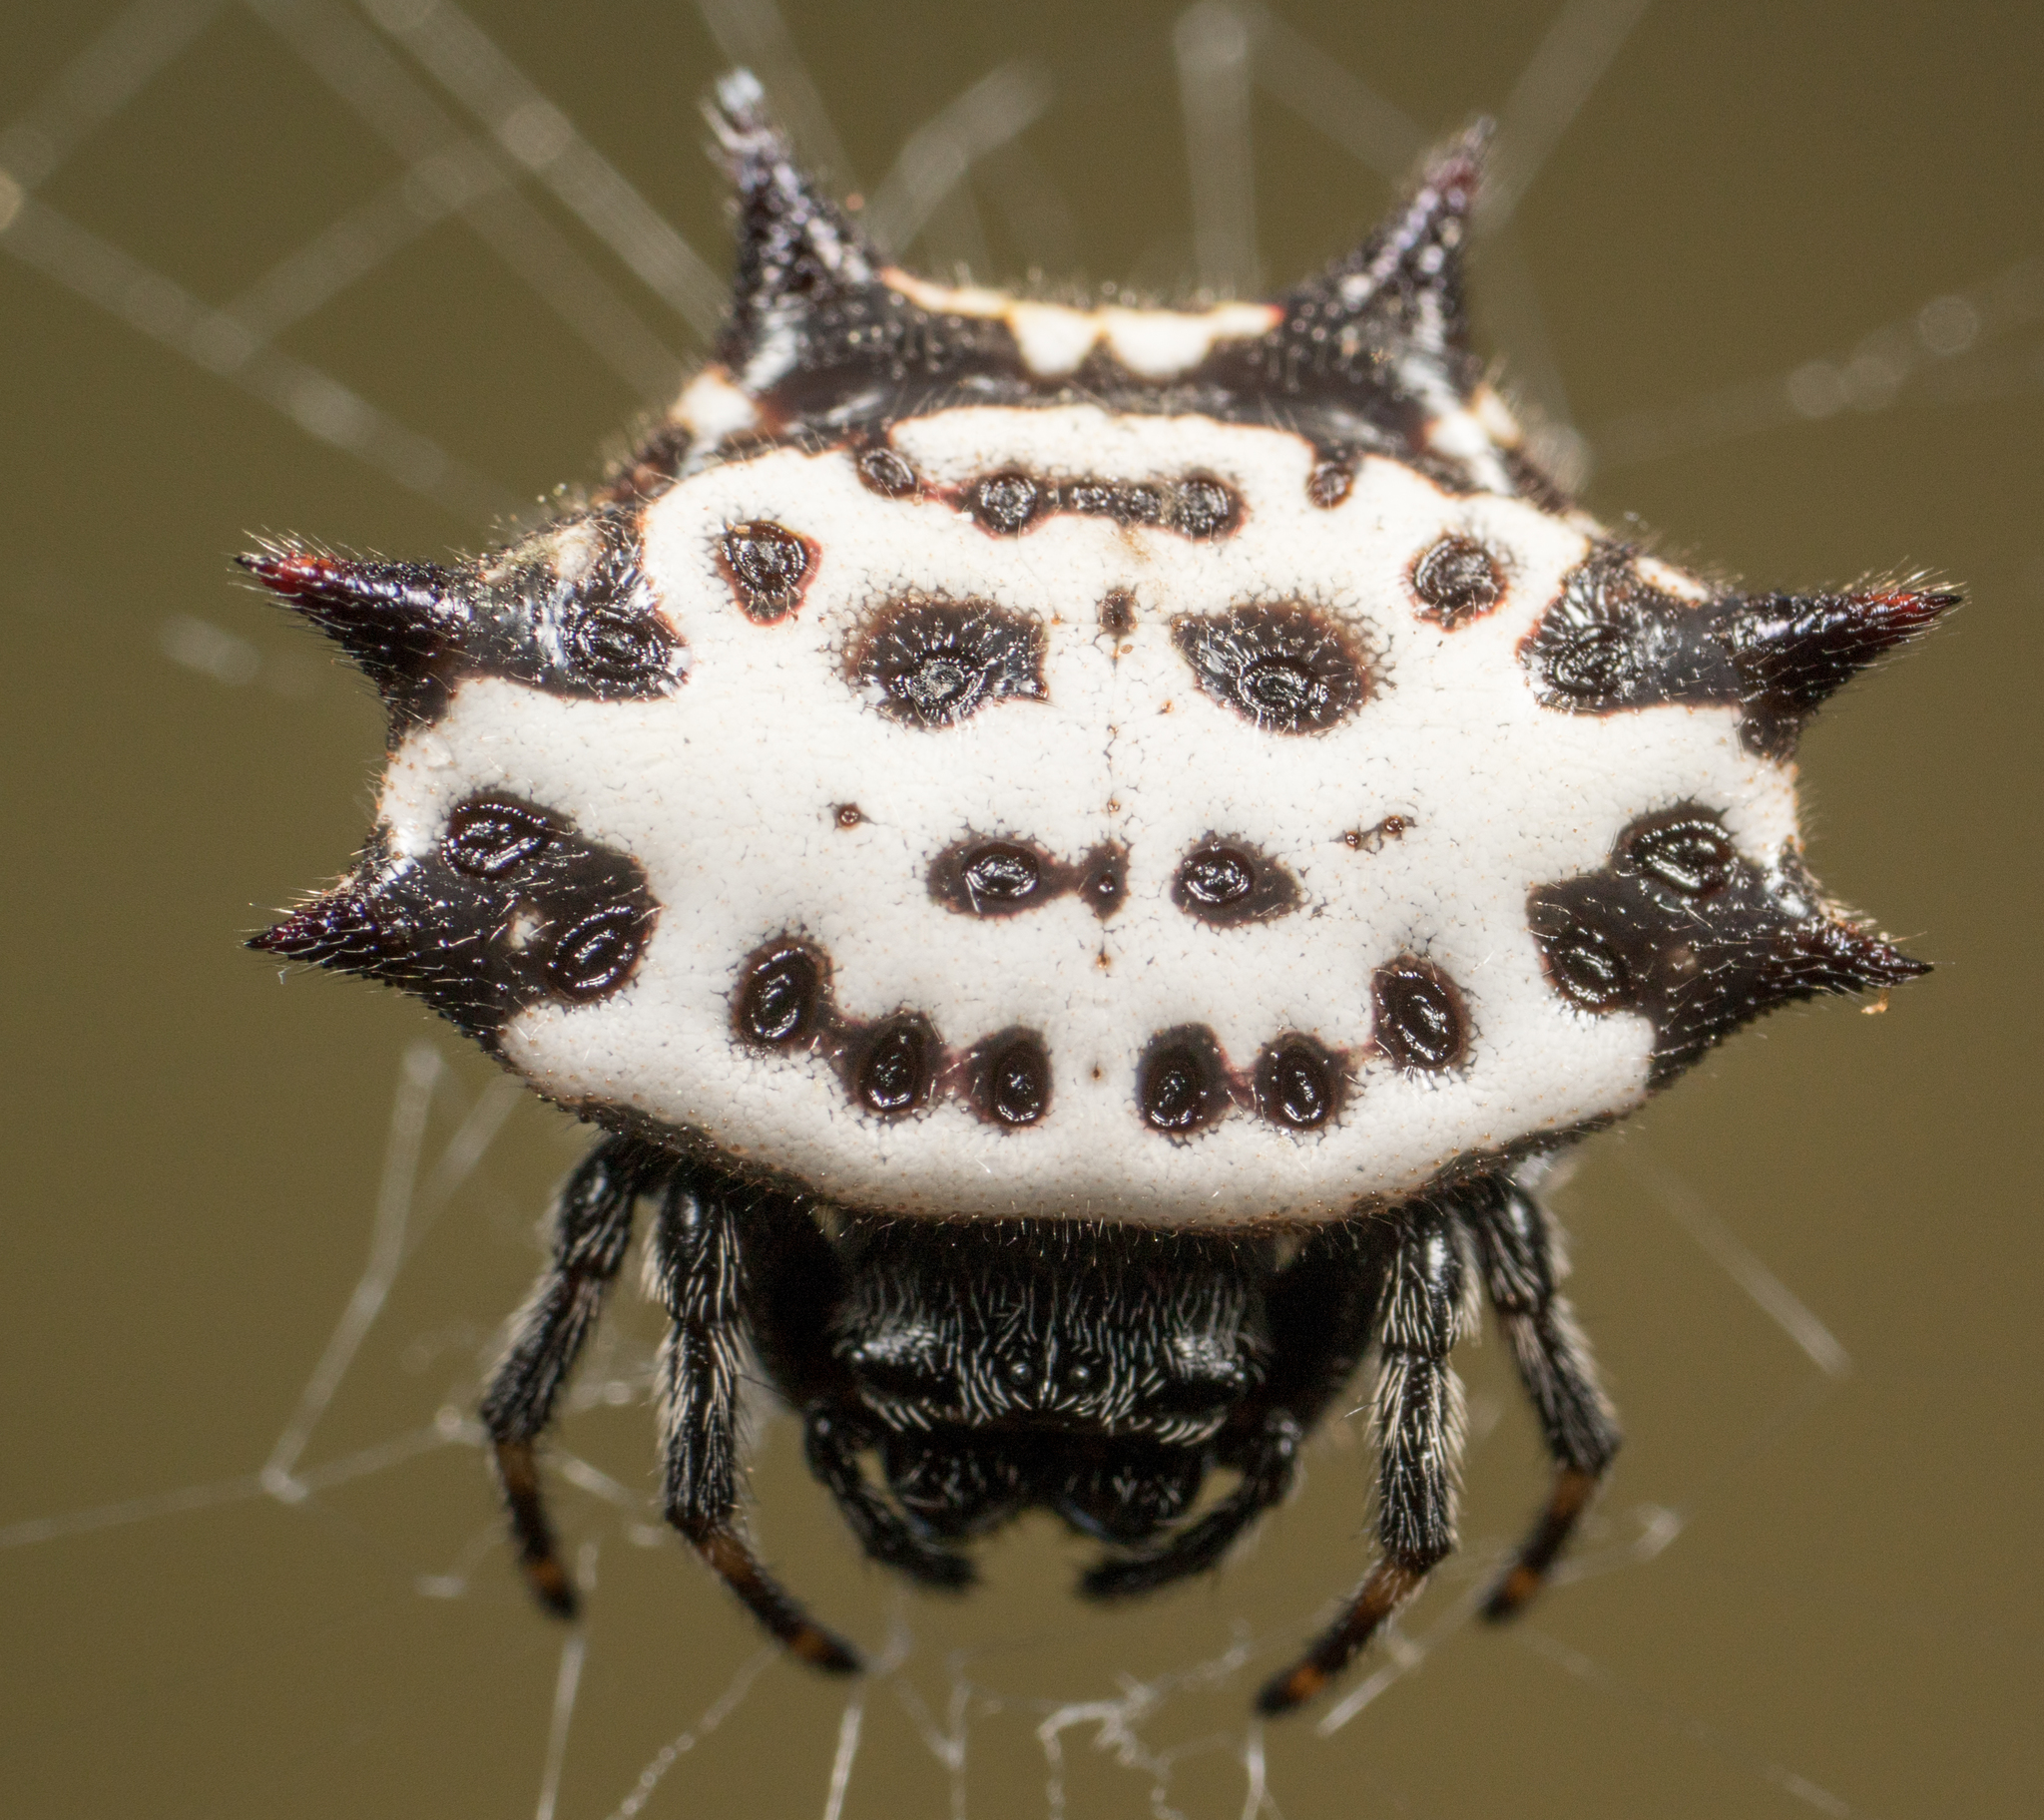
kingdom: Animalia
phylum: Arthropoda
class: Arachnida
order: Araneae
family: Araneidae
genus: Gasteracantha
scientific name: Gasteracantha cancriformis
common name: Orb weavers
